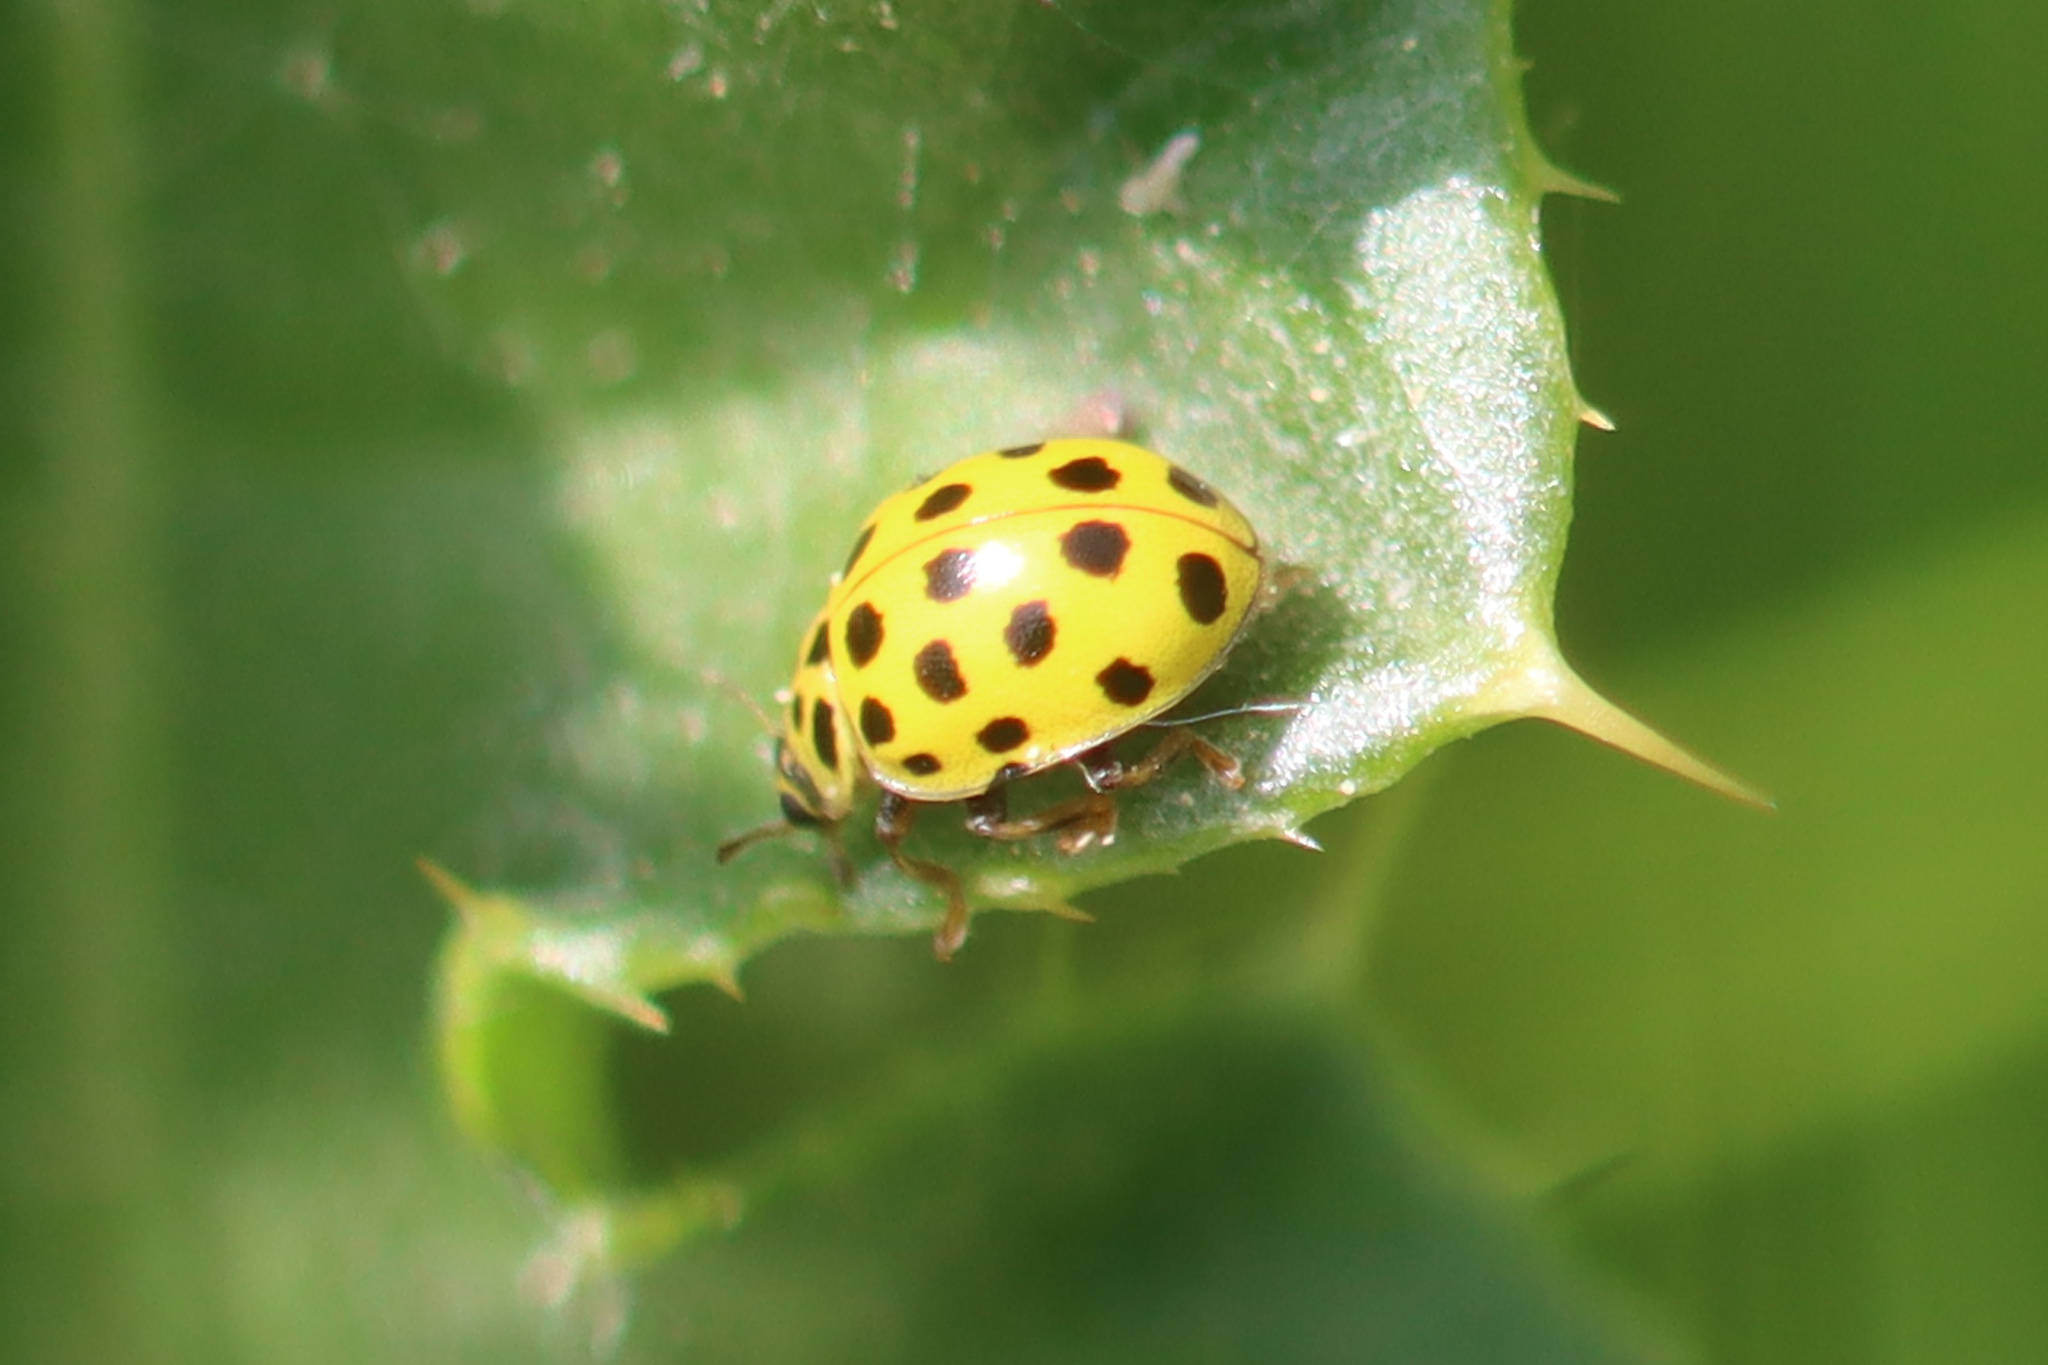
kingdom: Animalia
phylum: Arthropoda
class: Insecta
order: Coleoptera
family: Coccinellidae
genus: Psyllobora
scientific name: Psyllobora vigintiduopunctata
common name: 22-spot ladybird
